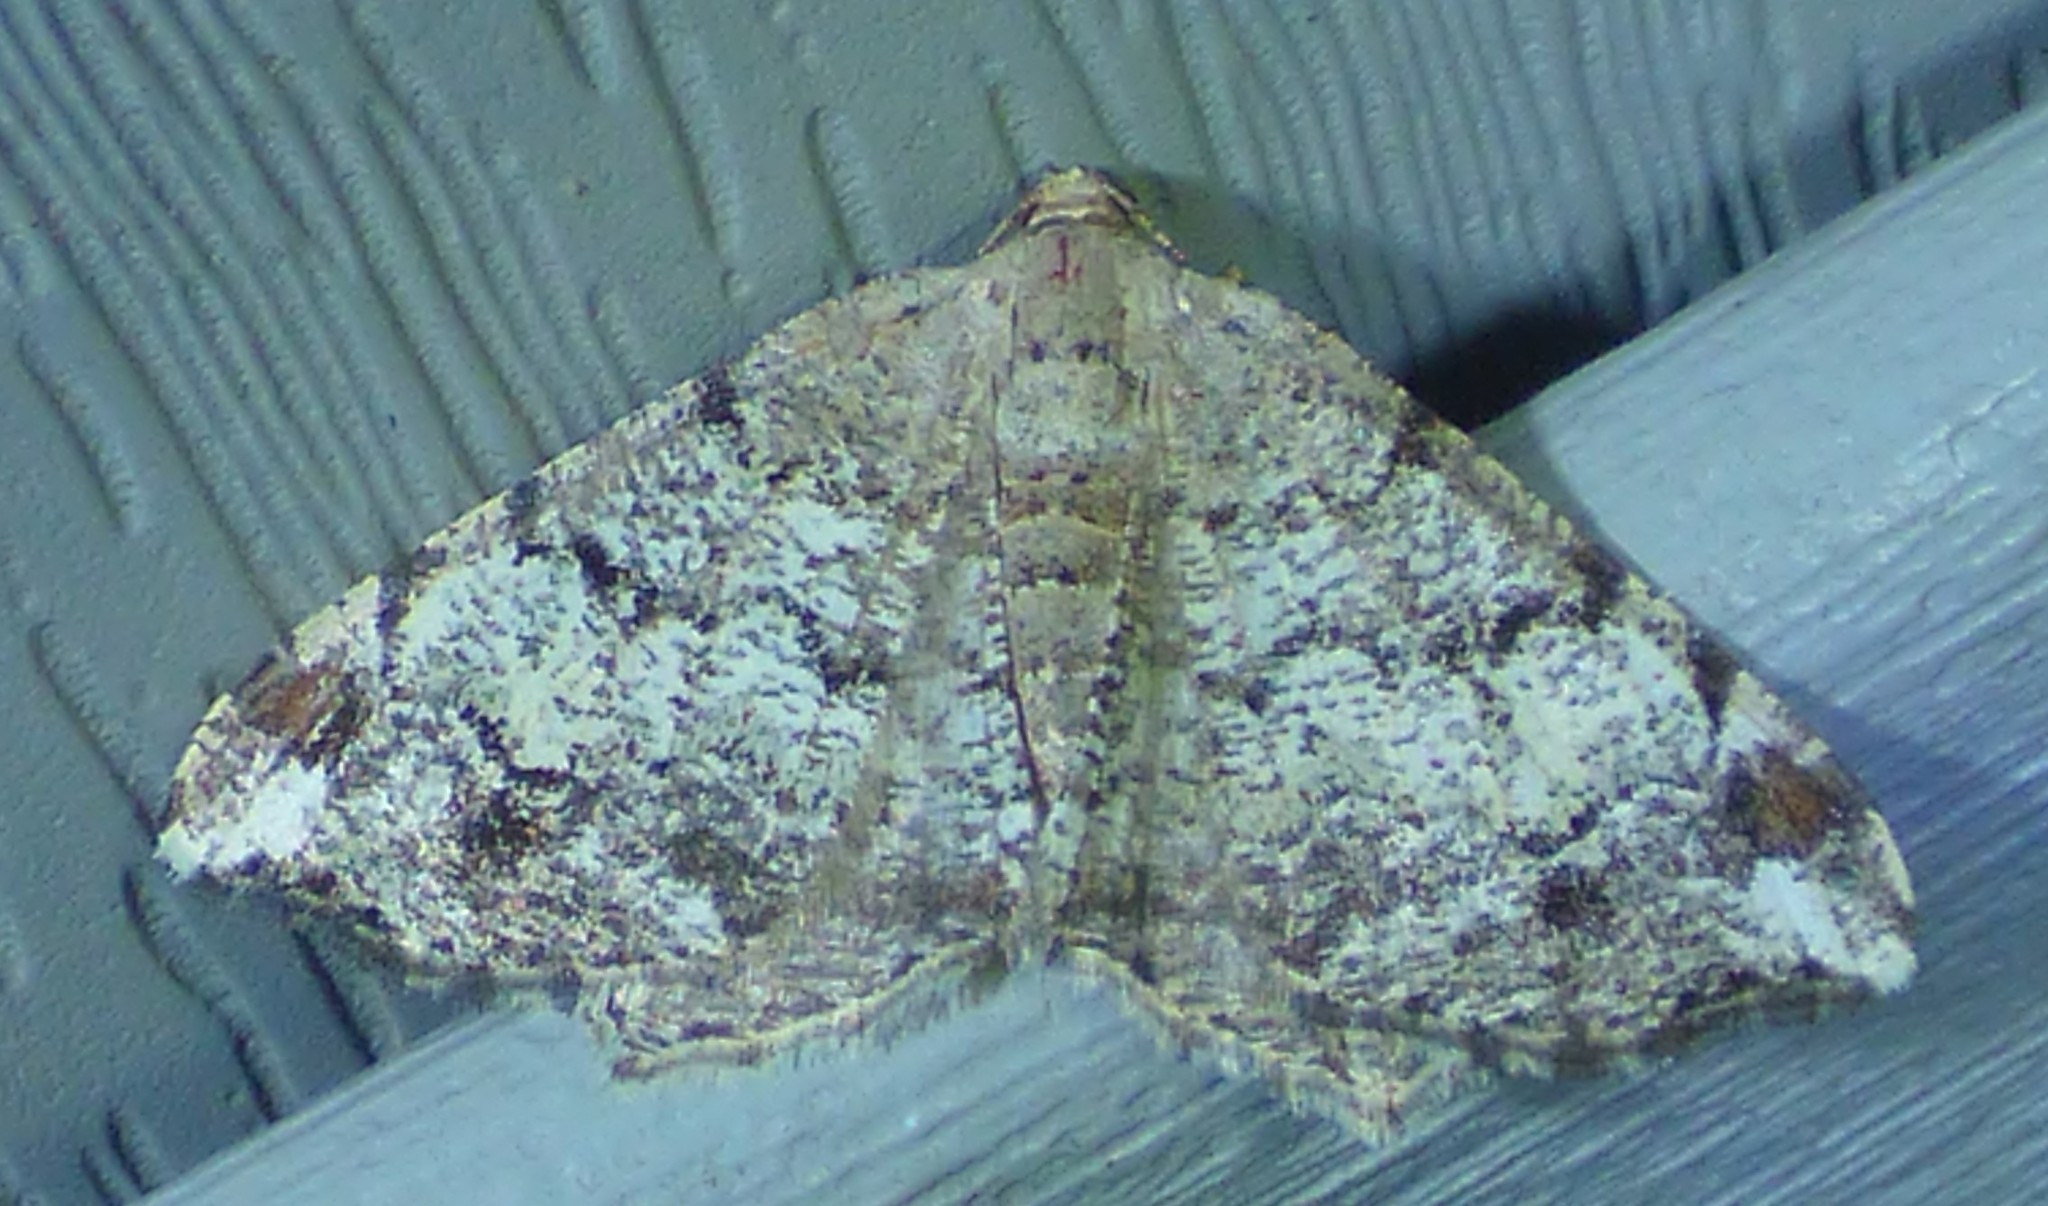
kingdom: Animalia
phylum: Arthropoda
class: Insecta
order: Lepidoptera
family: Geometridae
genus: Macaria
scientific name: Macaria granitata
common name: Granite moth
